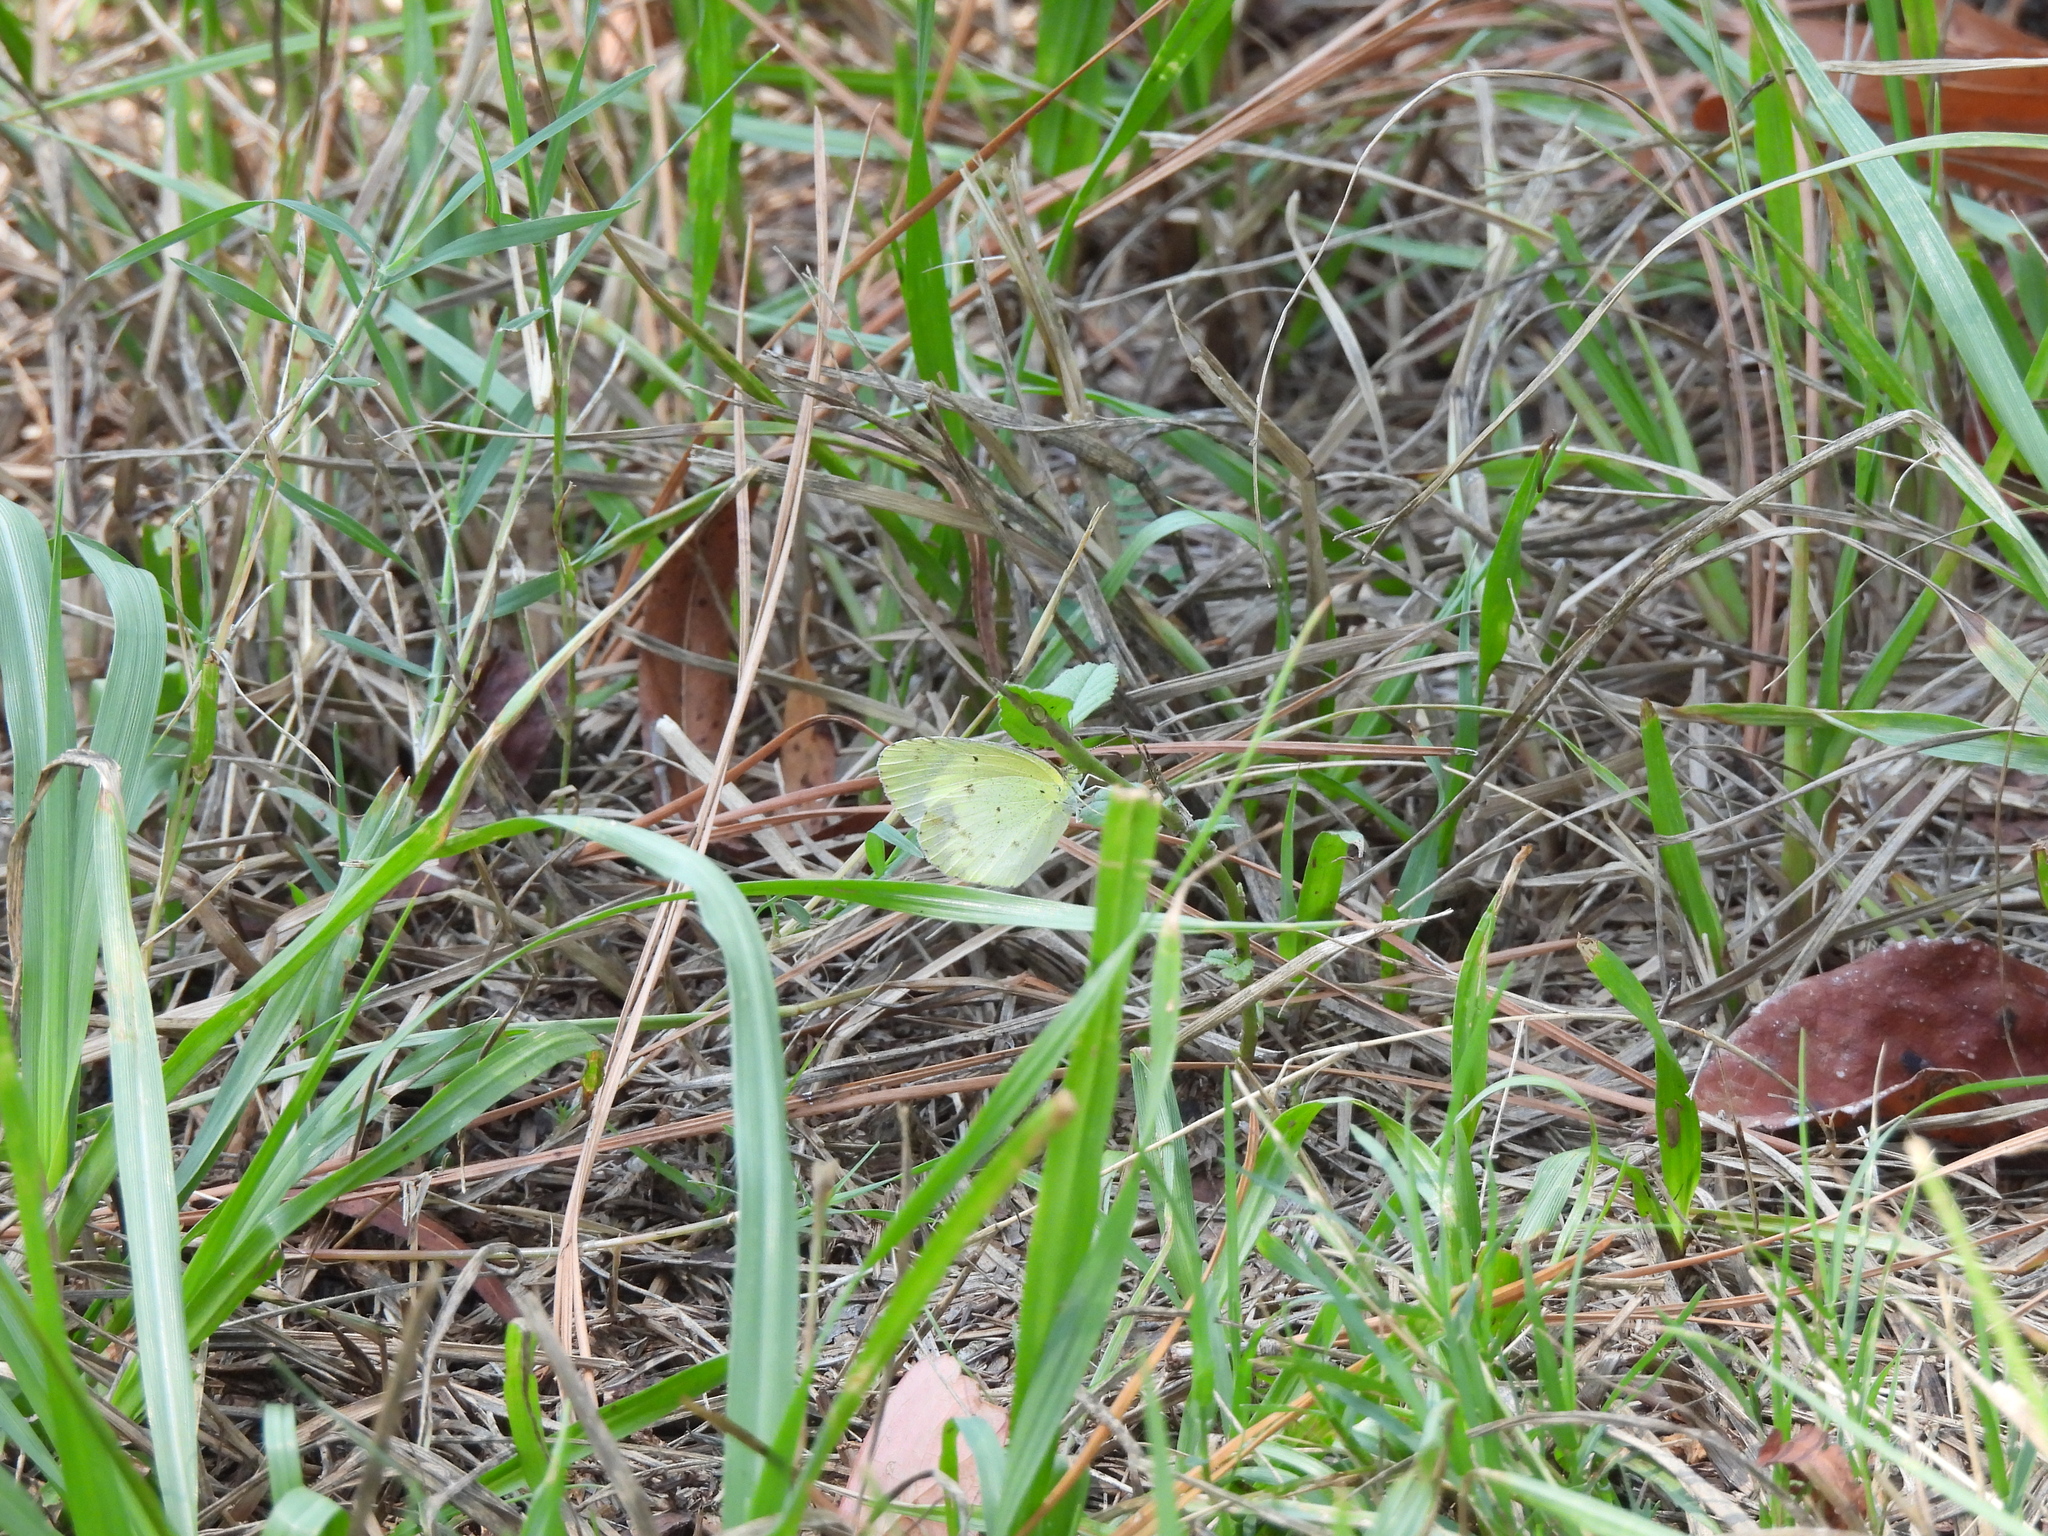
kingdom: Animalia
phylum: Arthropoda
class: Insecta
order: Lepidoptera
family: Pieridae
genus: Pyrisitia
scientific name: Pyrisitia lisa
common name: Little yellow
